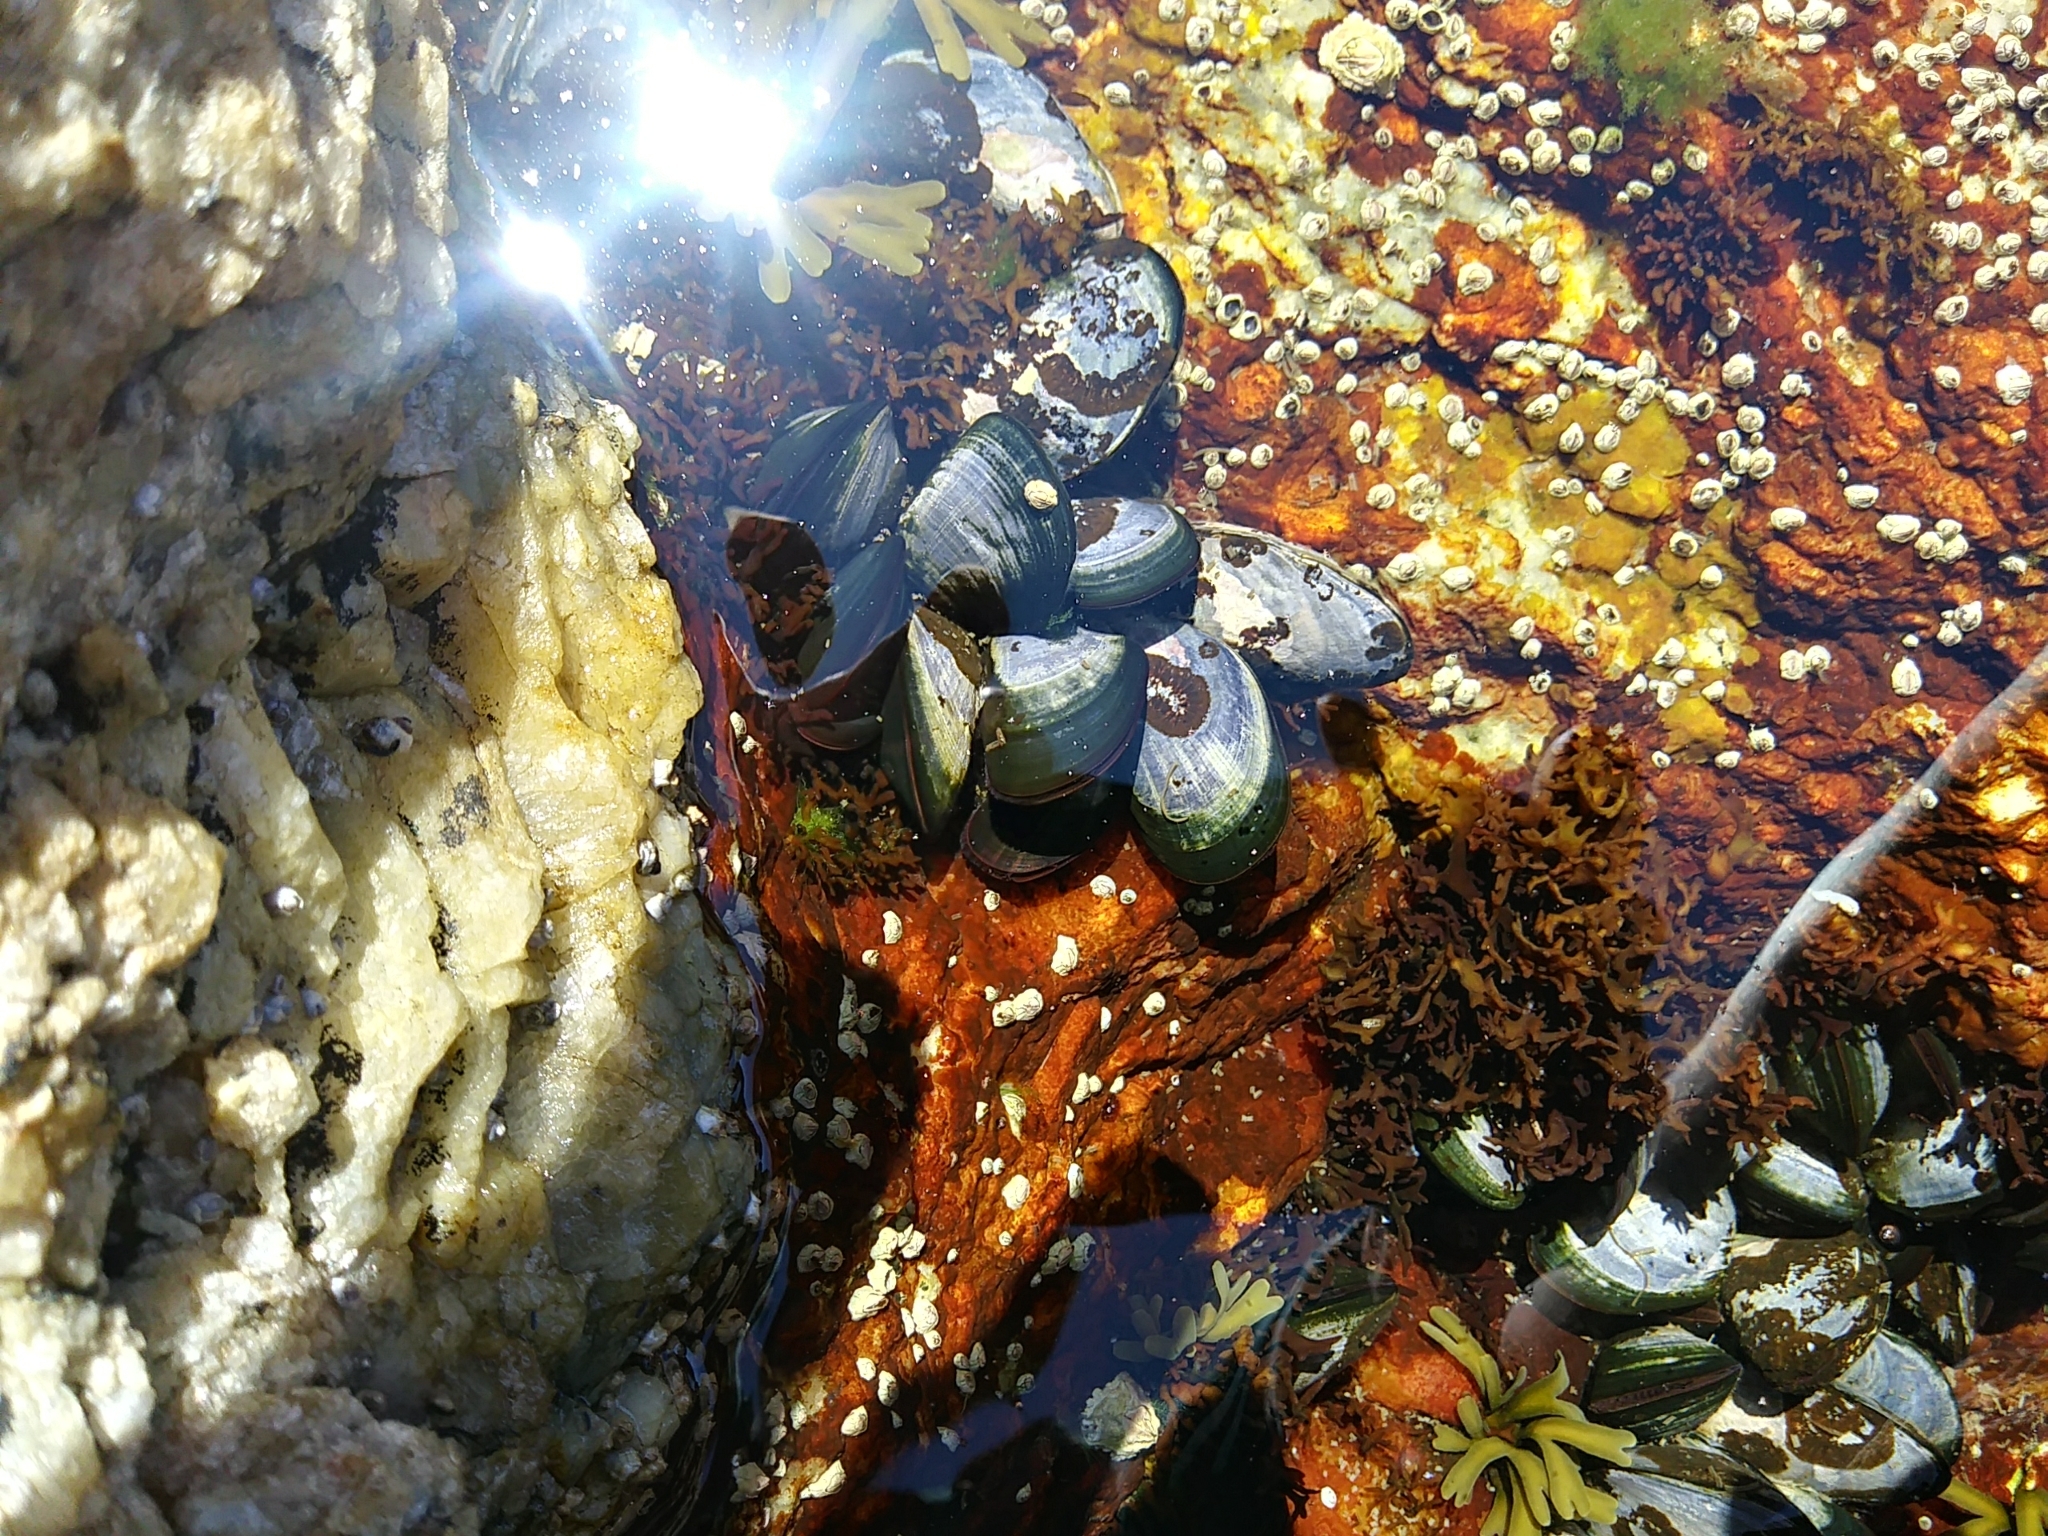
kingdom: Animalia
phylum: Mollusca
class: Bivalvia
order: Mytilida
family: Mytilidae
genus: Mytilus
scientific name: Mytilus edulis
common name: Blue mussel
